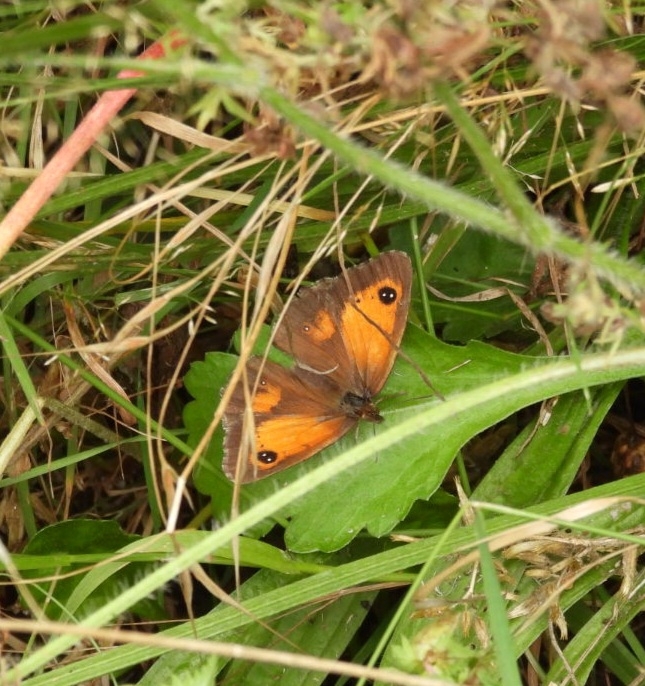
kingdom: Animalia
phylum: Arthropoda
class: Insecta
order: Lepidoptera
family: Nymphalidae
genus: Pyronia
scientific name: Pyronia tithonus
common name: Gatekeeper
